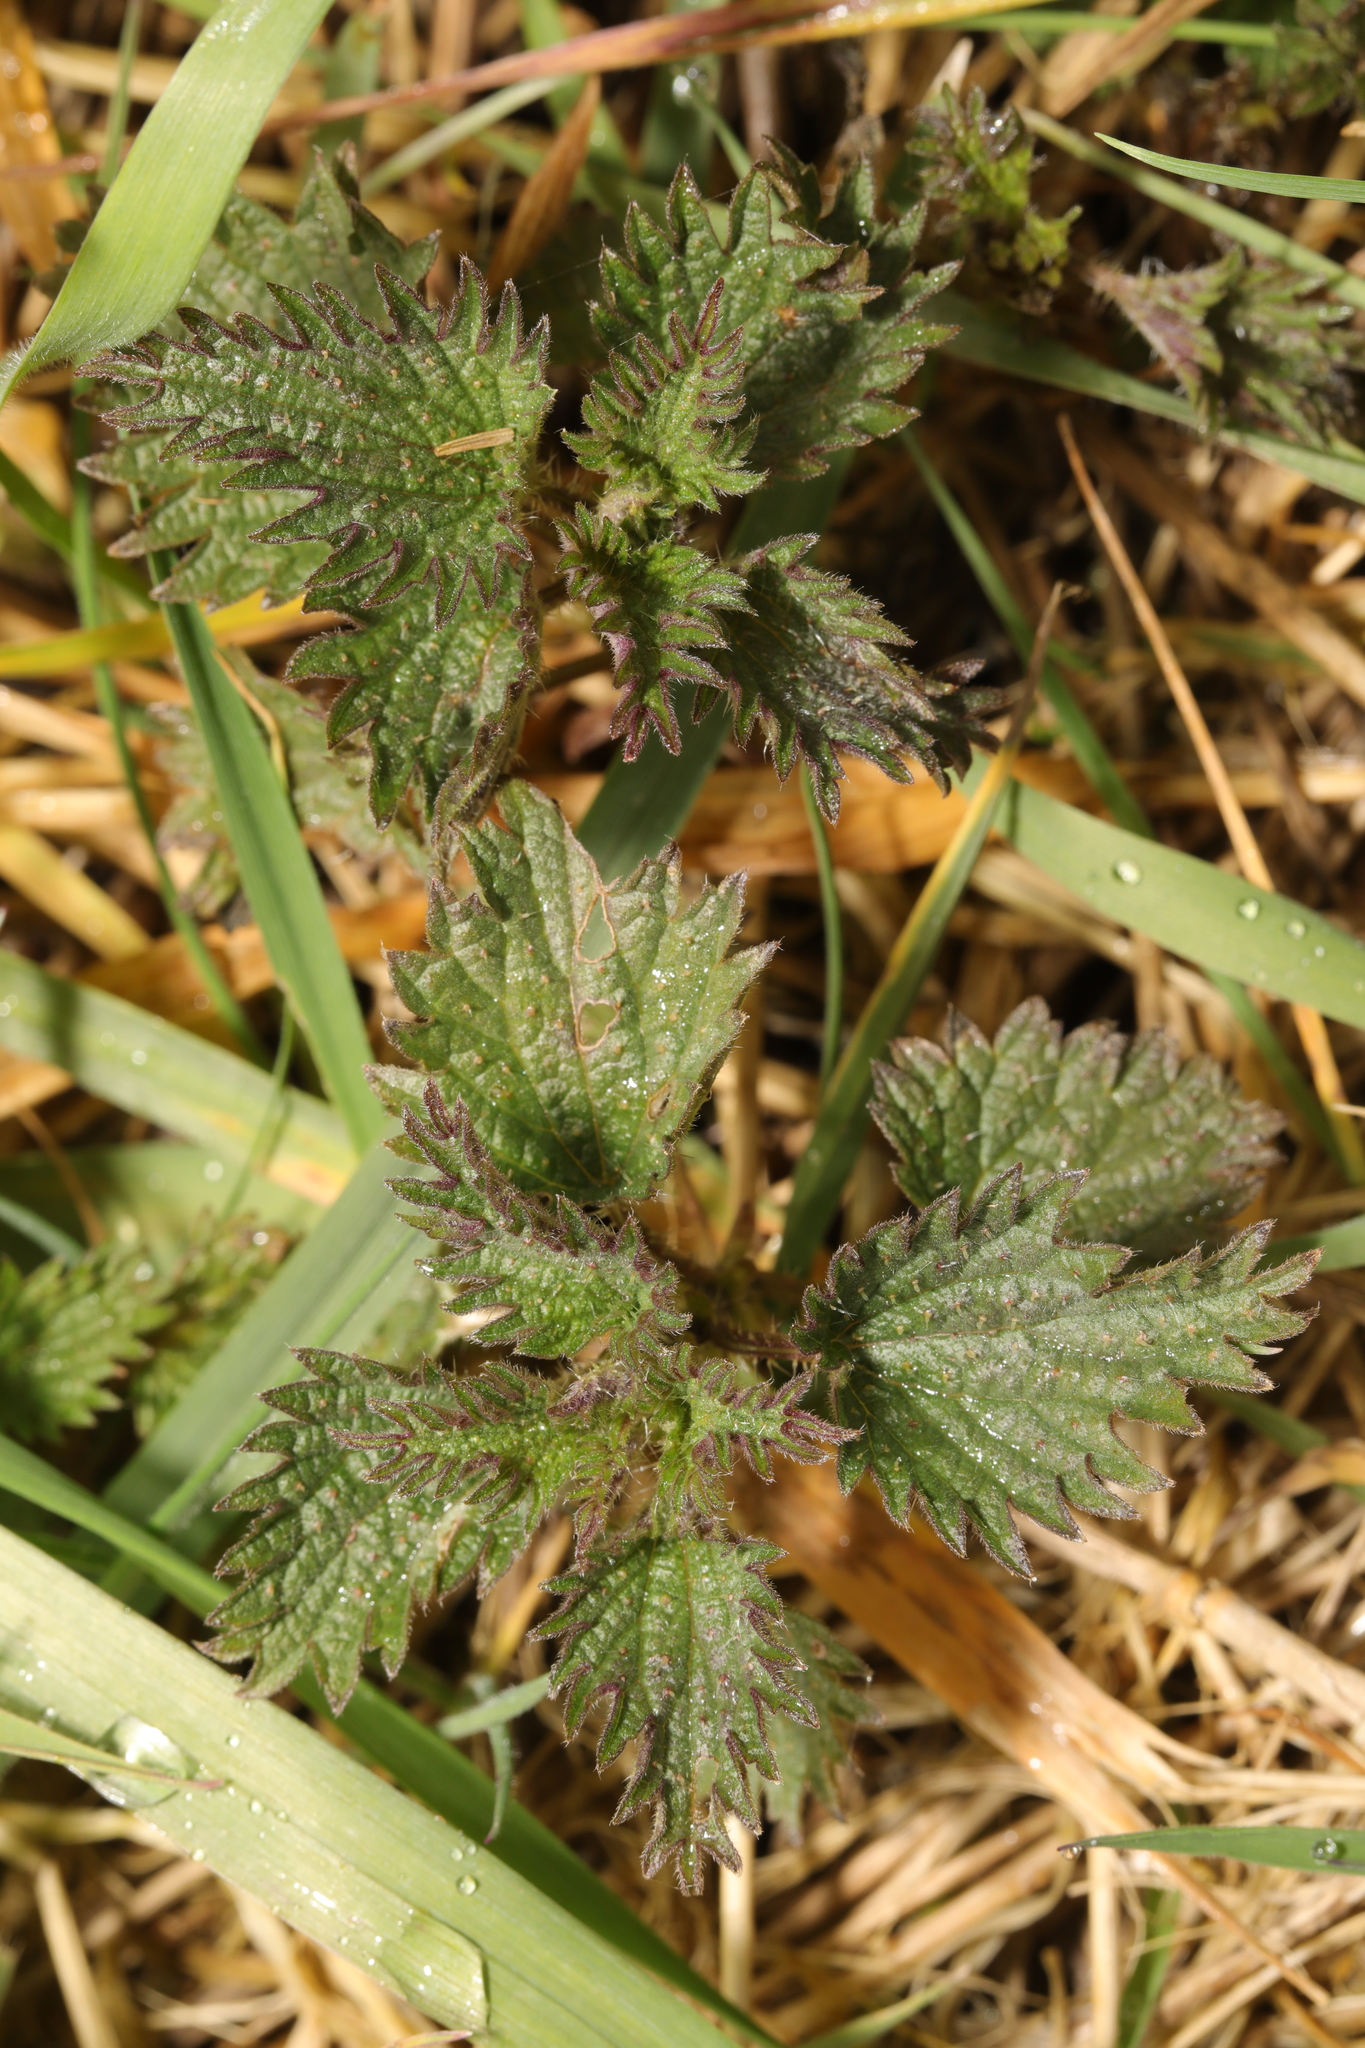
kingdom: Plantae
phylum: Tracheophyta
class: Magnoliopsida
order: Rosales
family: Urticaceae
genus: Urtica
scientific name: Urtica dioica
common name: Common nettle
